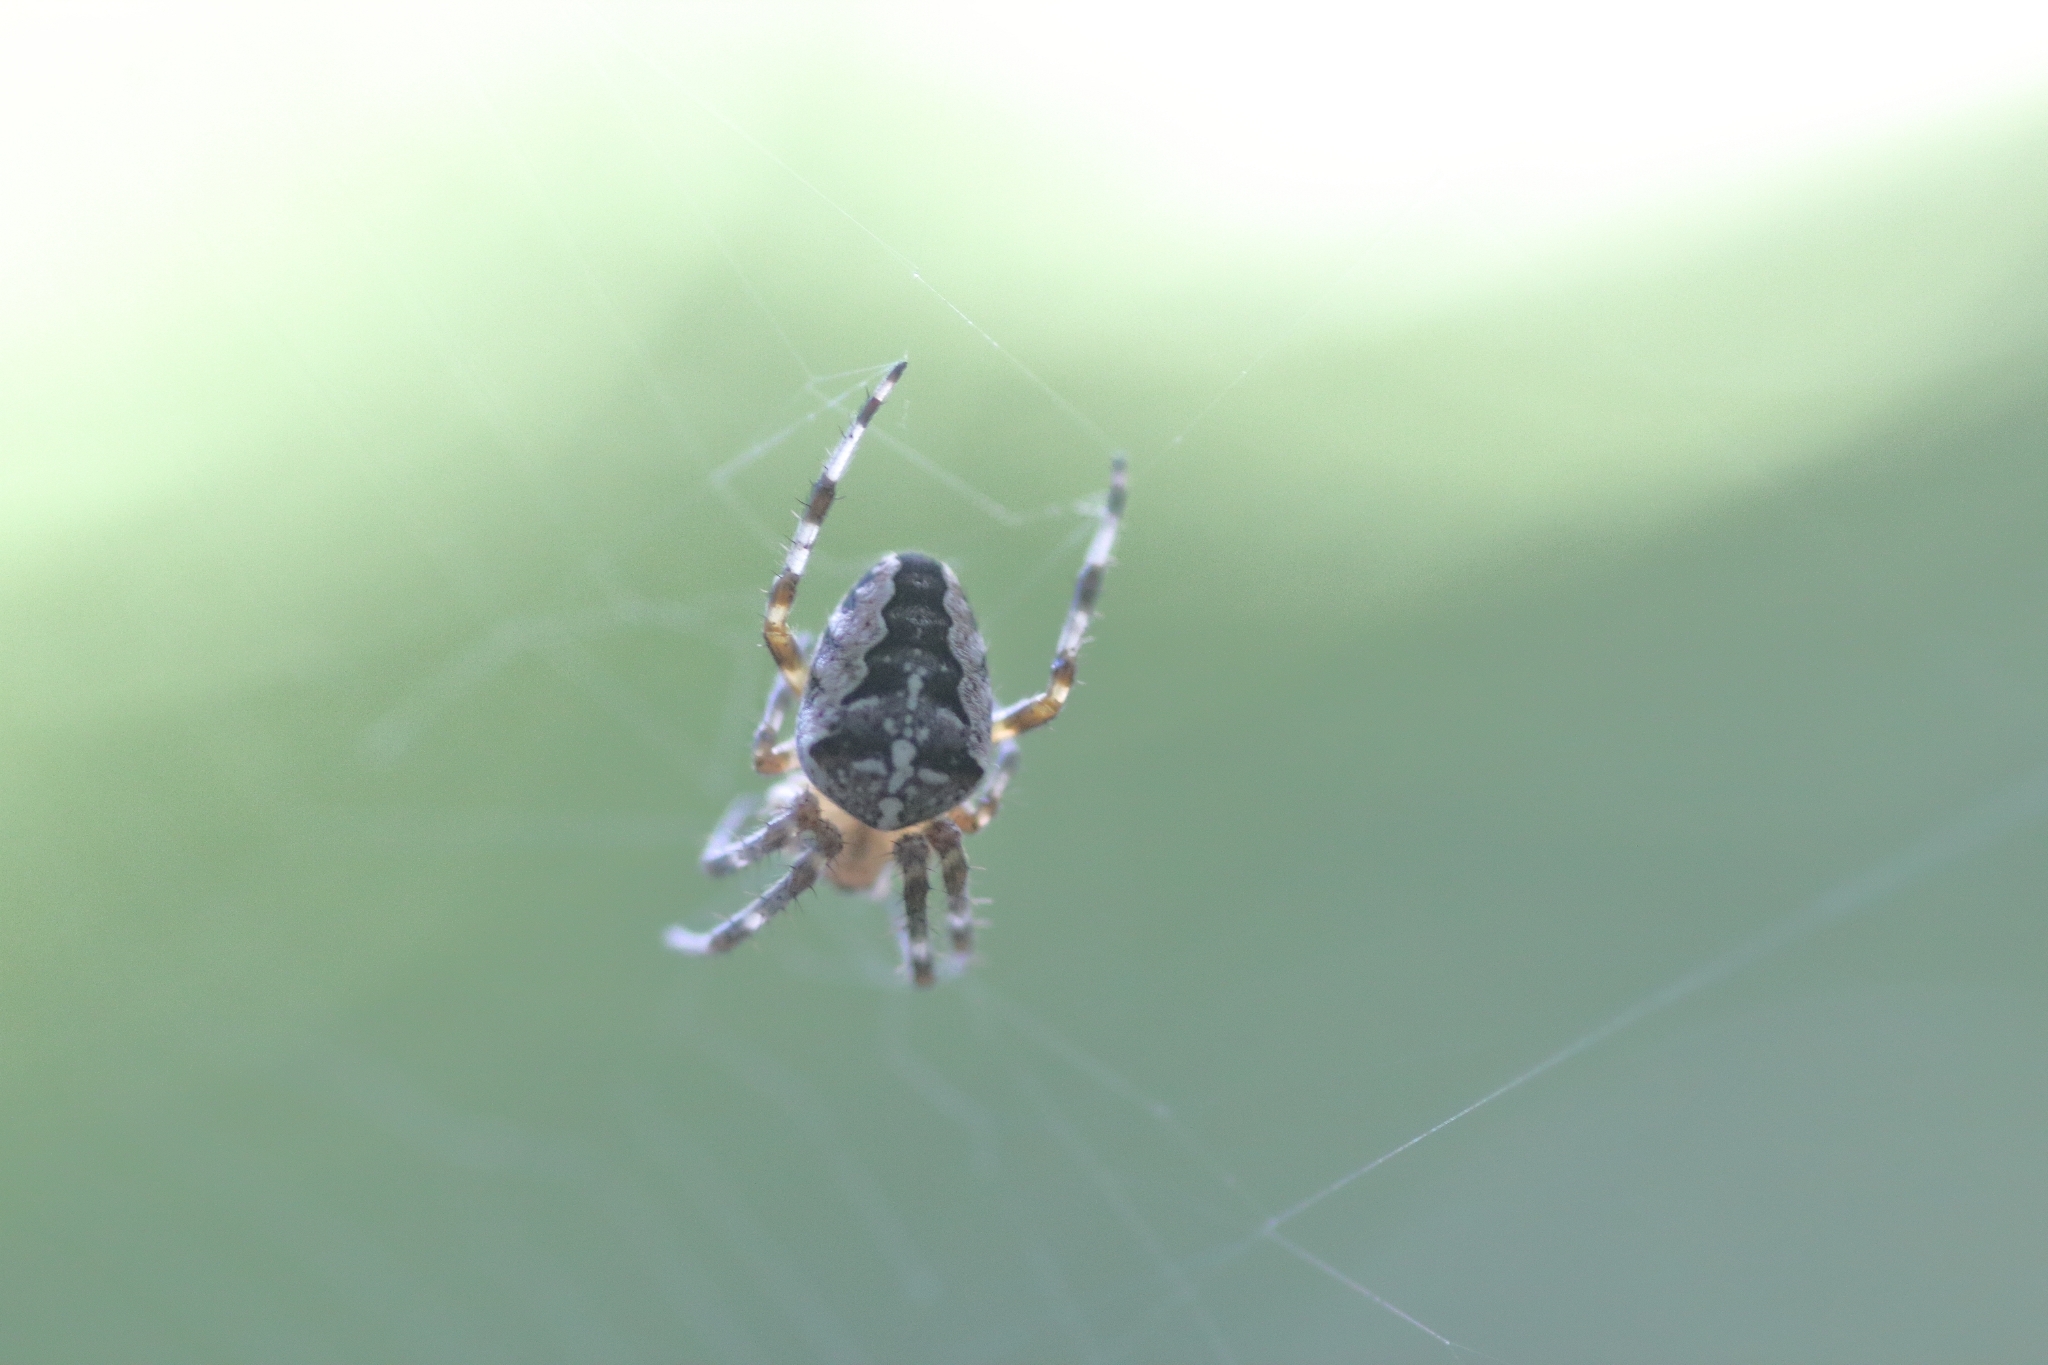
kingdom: Animalia
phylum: Arthropoda
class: Arachnida
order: Araneae
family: Araneidae
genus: Araneus
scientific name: Araneus diadematus
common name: Cross orbweaver
